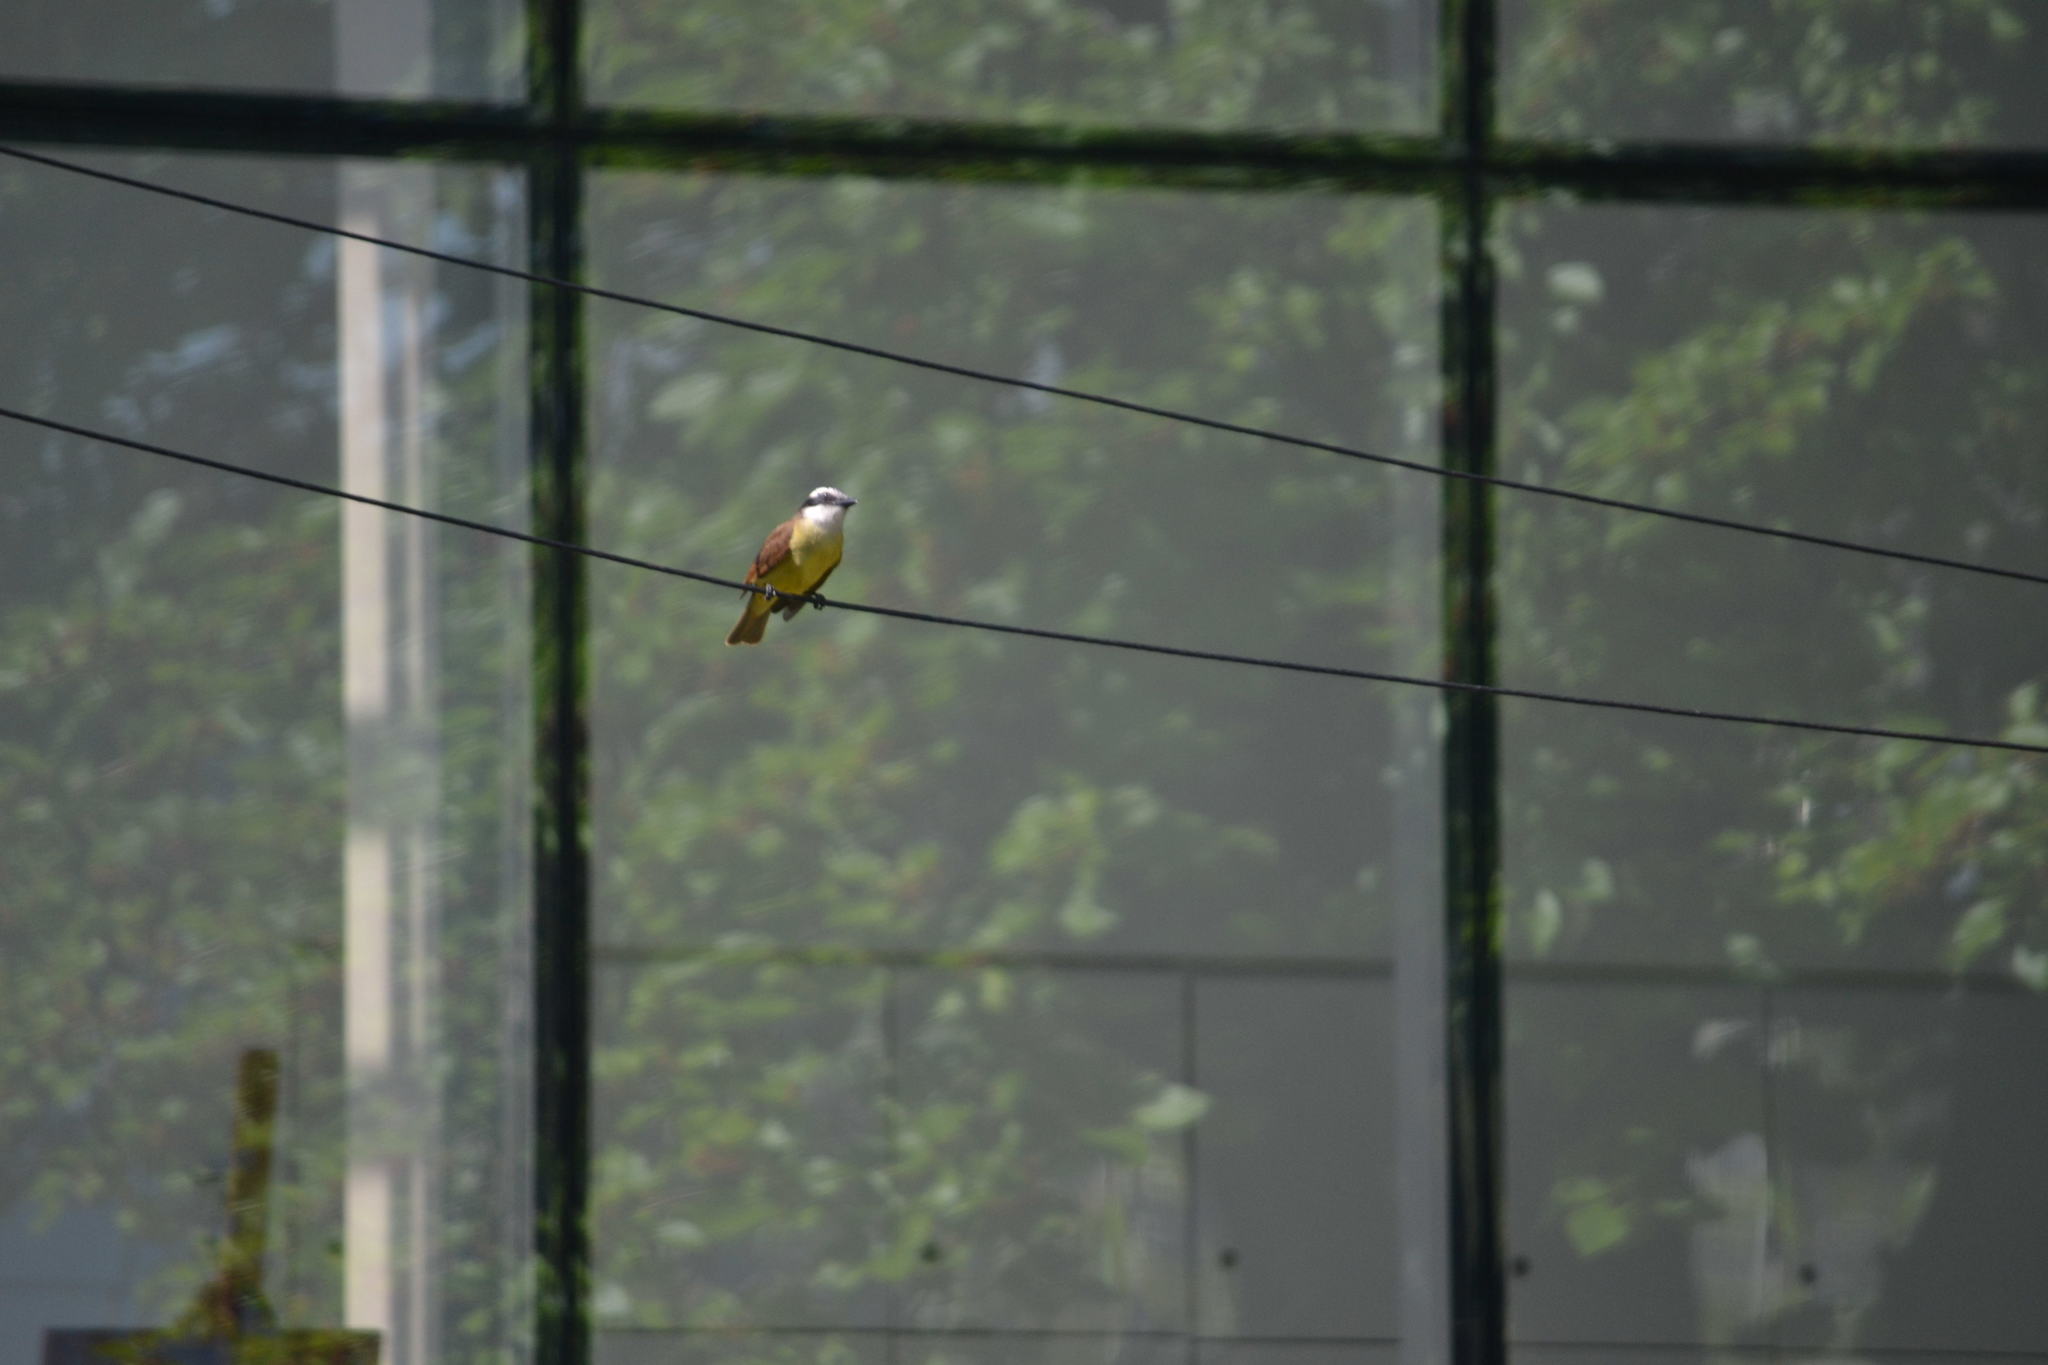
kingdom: Animalia
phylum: Chordata
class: Aves
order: Passeriformes
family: Tyrannidae
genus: Pitangus
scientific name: Pitangus sulphuratus
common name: Great kiskadee
